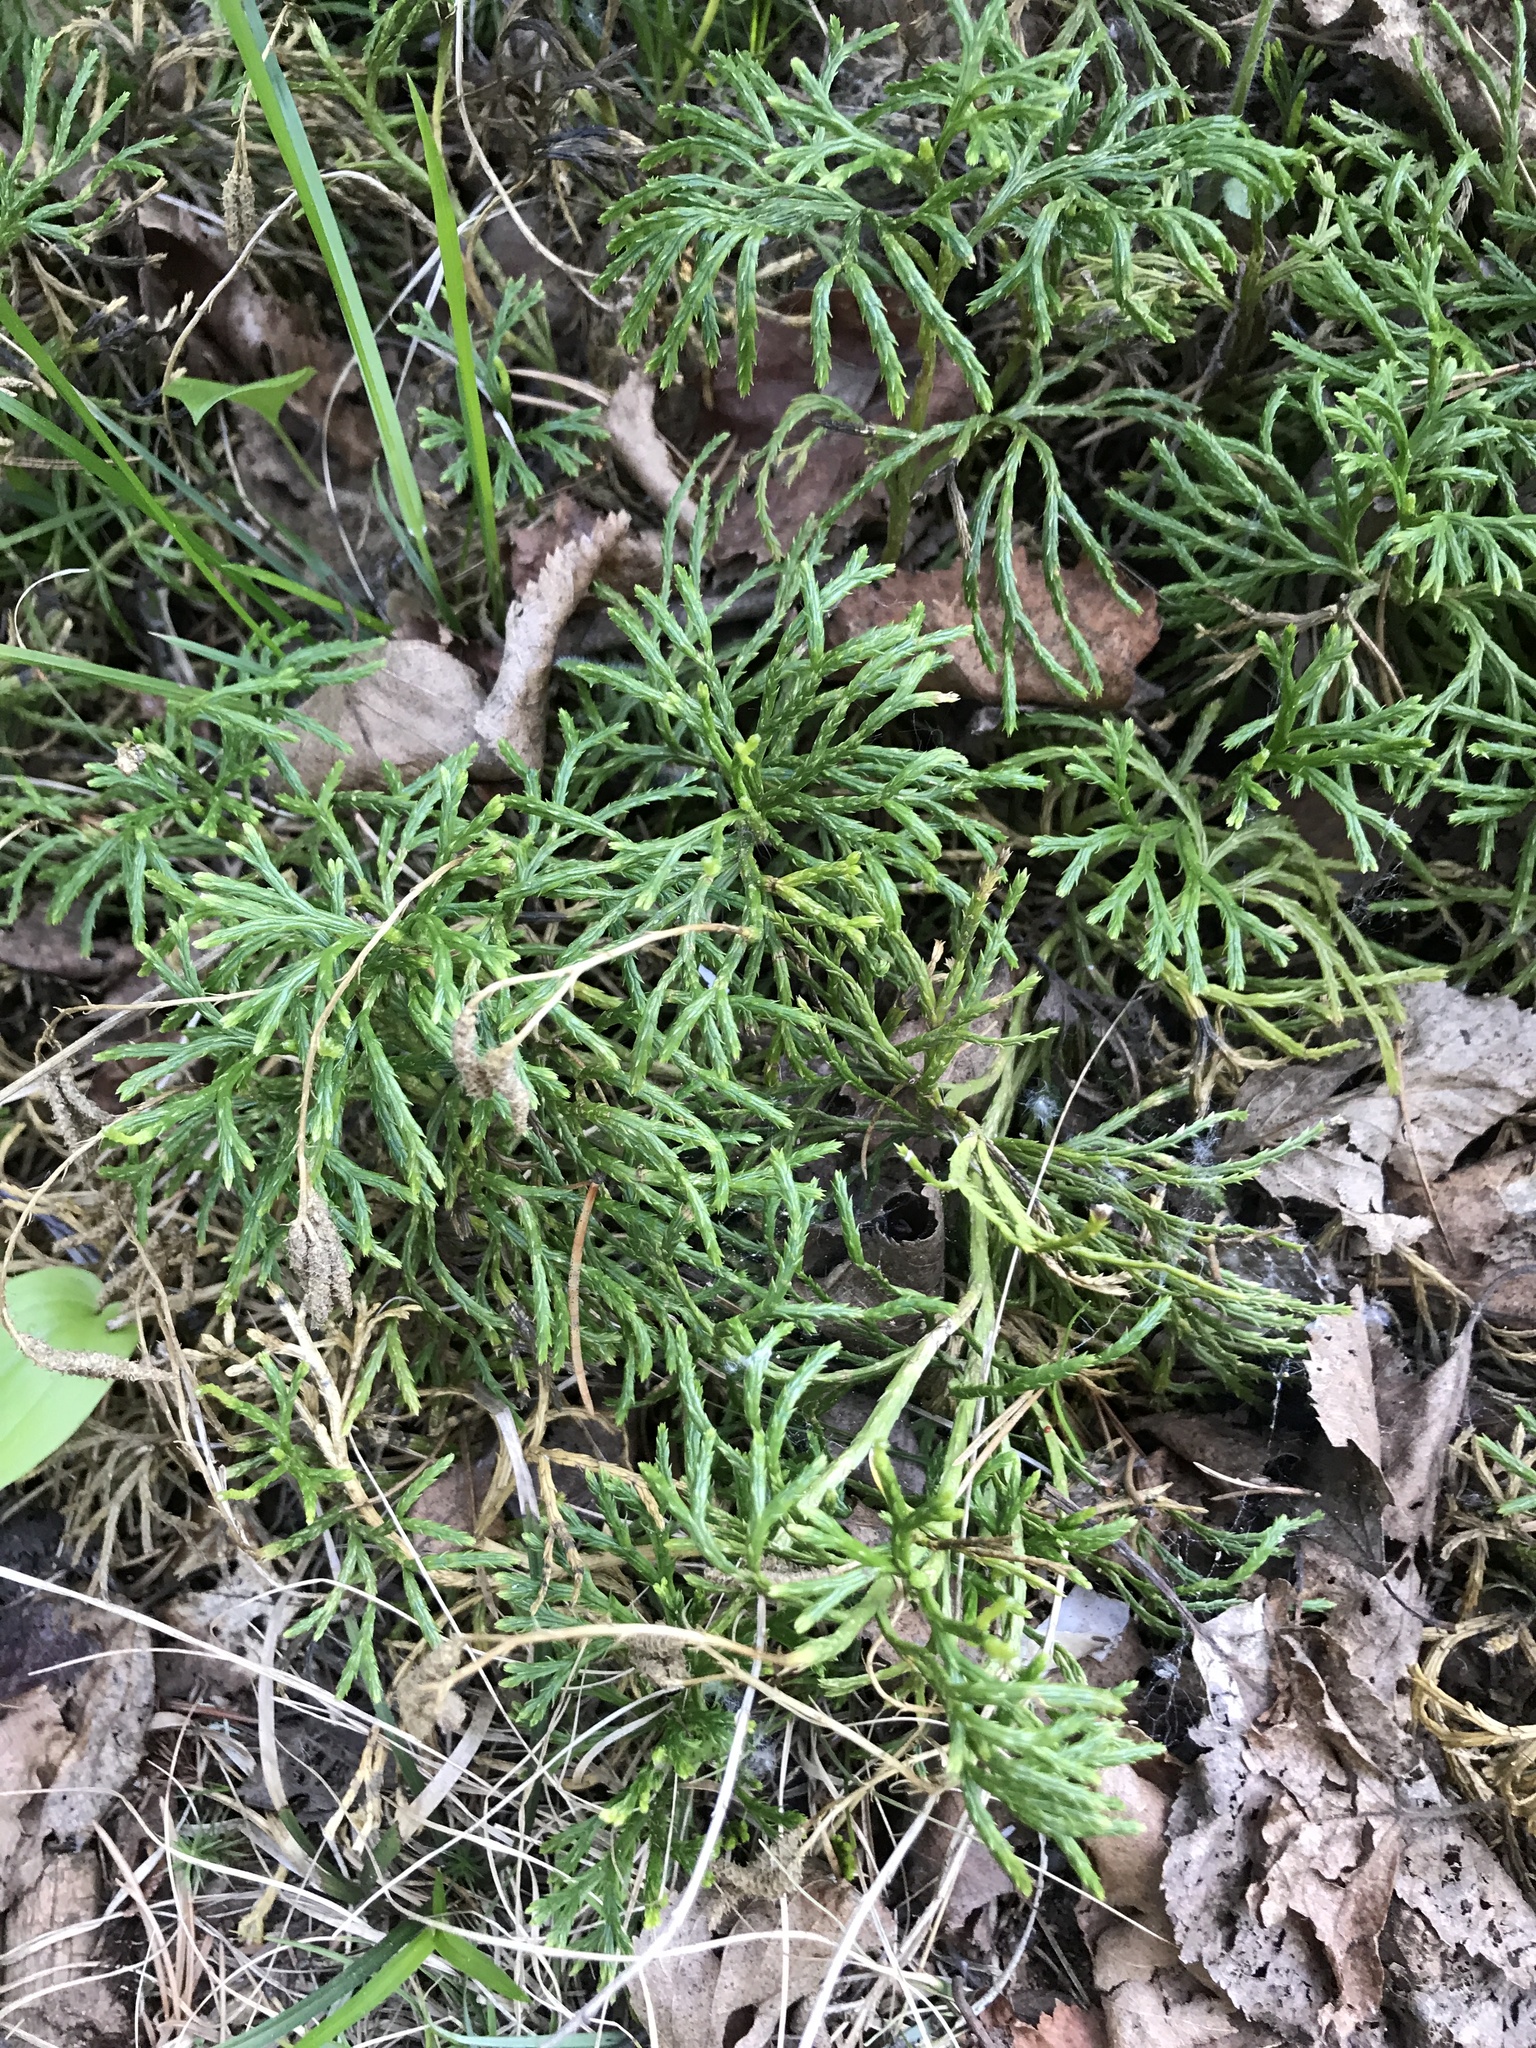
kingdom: Plantae
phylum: Tracheophyta
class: Lycopodiopsida
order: Lycopodiales
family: Lycopodiaceae
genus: Diphasiastrum
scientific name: Diphasiastrum complanatum
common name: Northern running-pine
